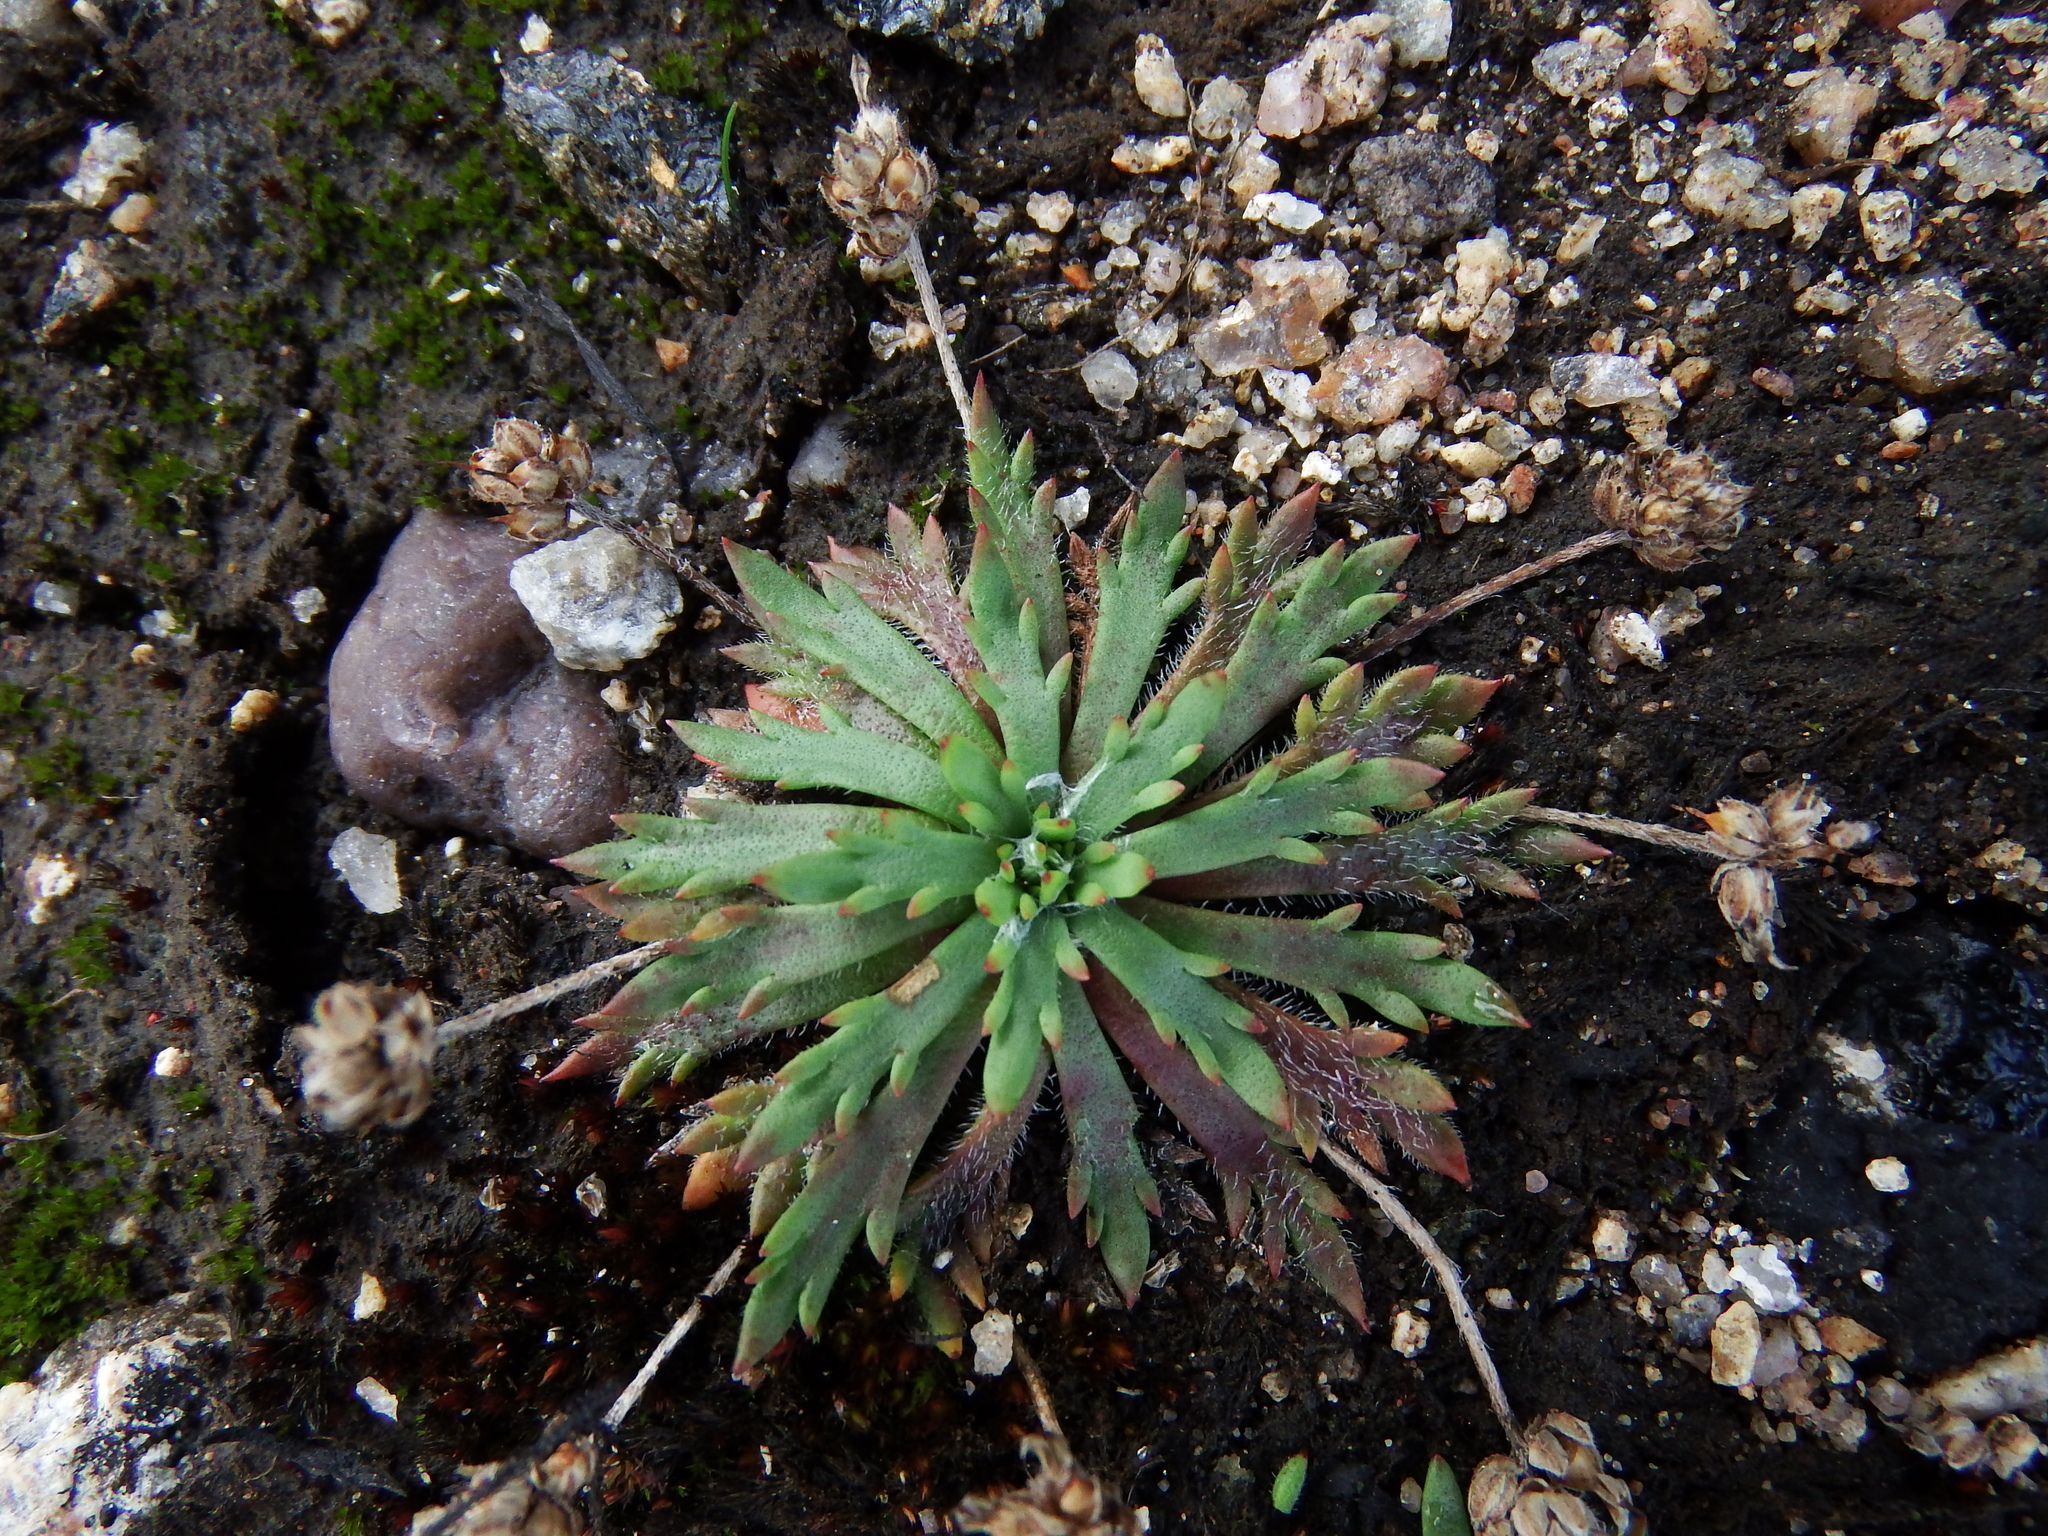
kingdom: Plantae
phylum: Tracheophyta
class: Magnoliopsida
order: Lamiales
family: Plantaginaceae
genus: Plantago
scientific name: Plantago coronopus
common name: Buck's-horn plantain
